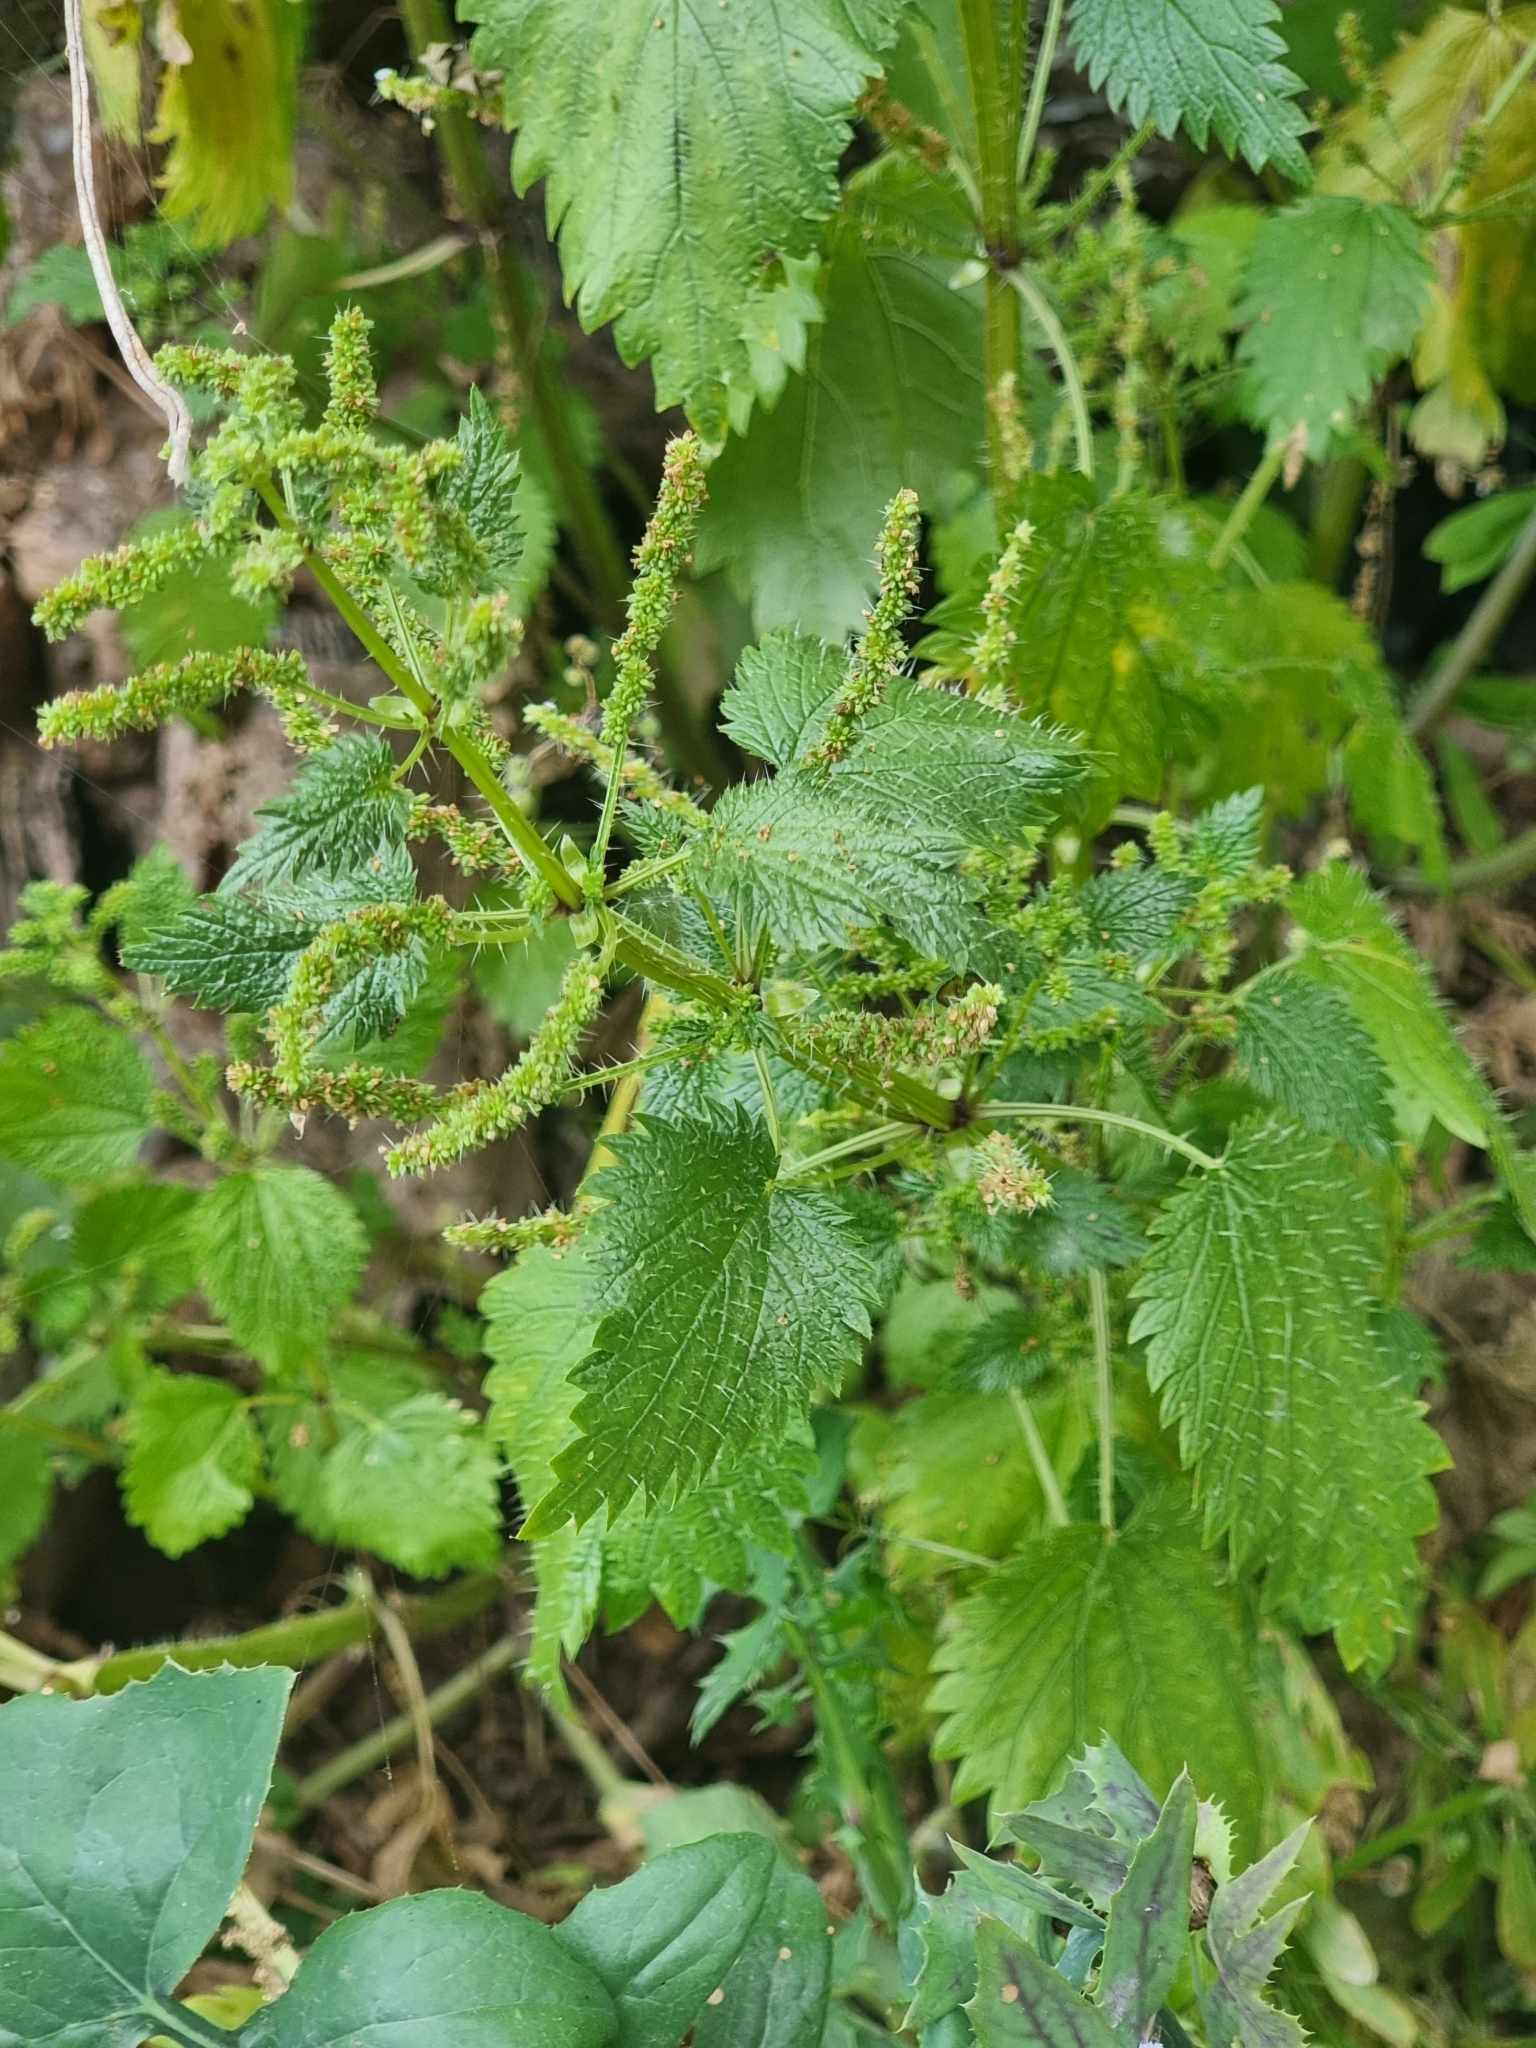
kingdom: Plantae
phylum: Tracheophyta
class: Magnoliopsida
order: Rosales
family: Urticaceae
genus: Urtica
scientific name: Urtica membranacea
